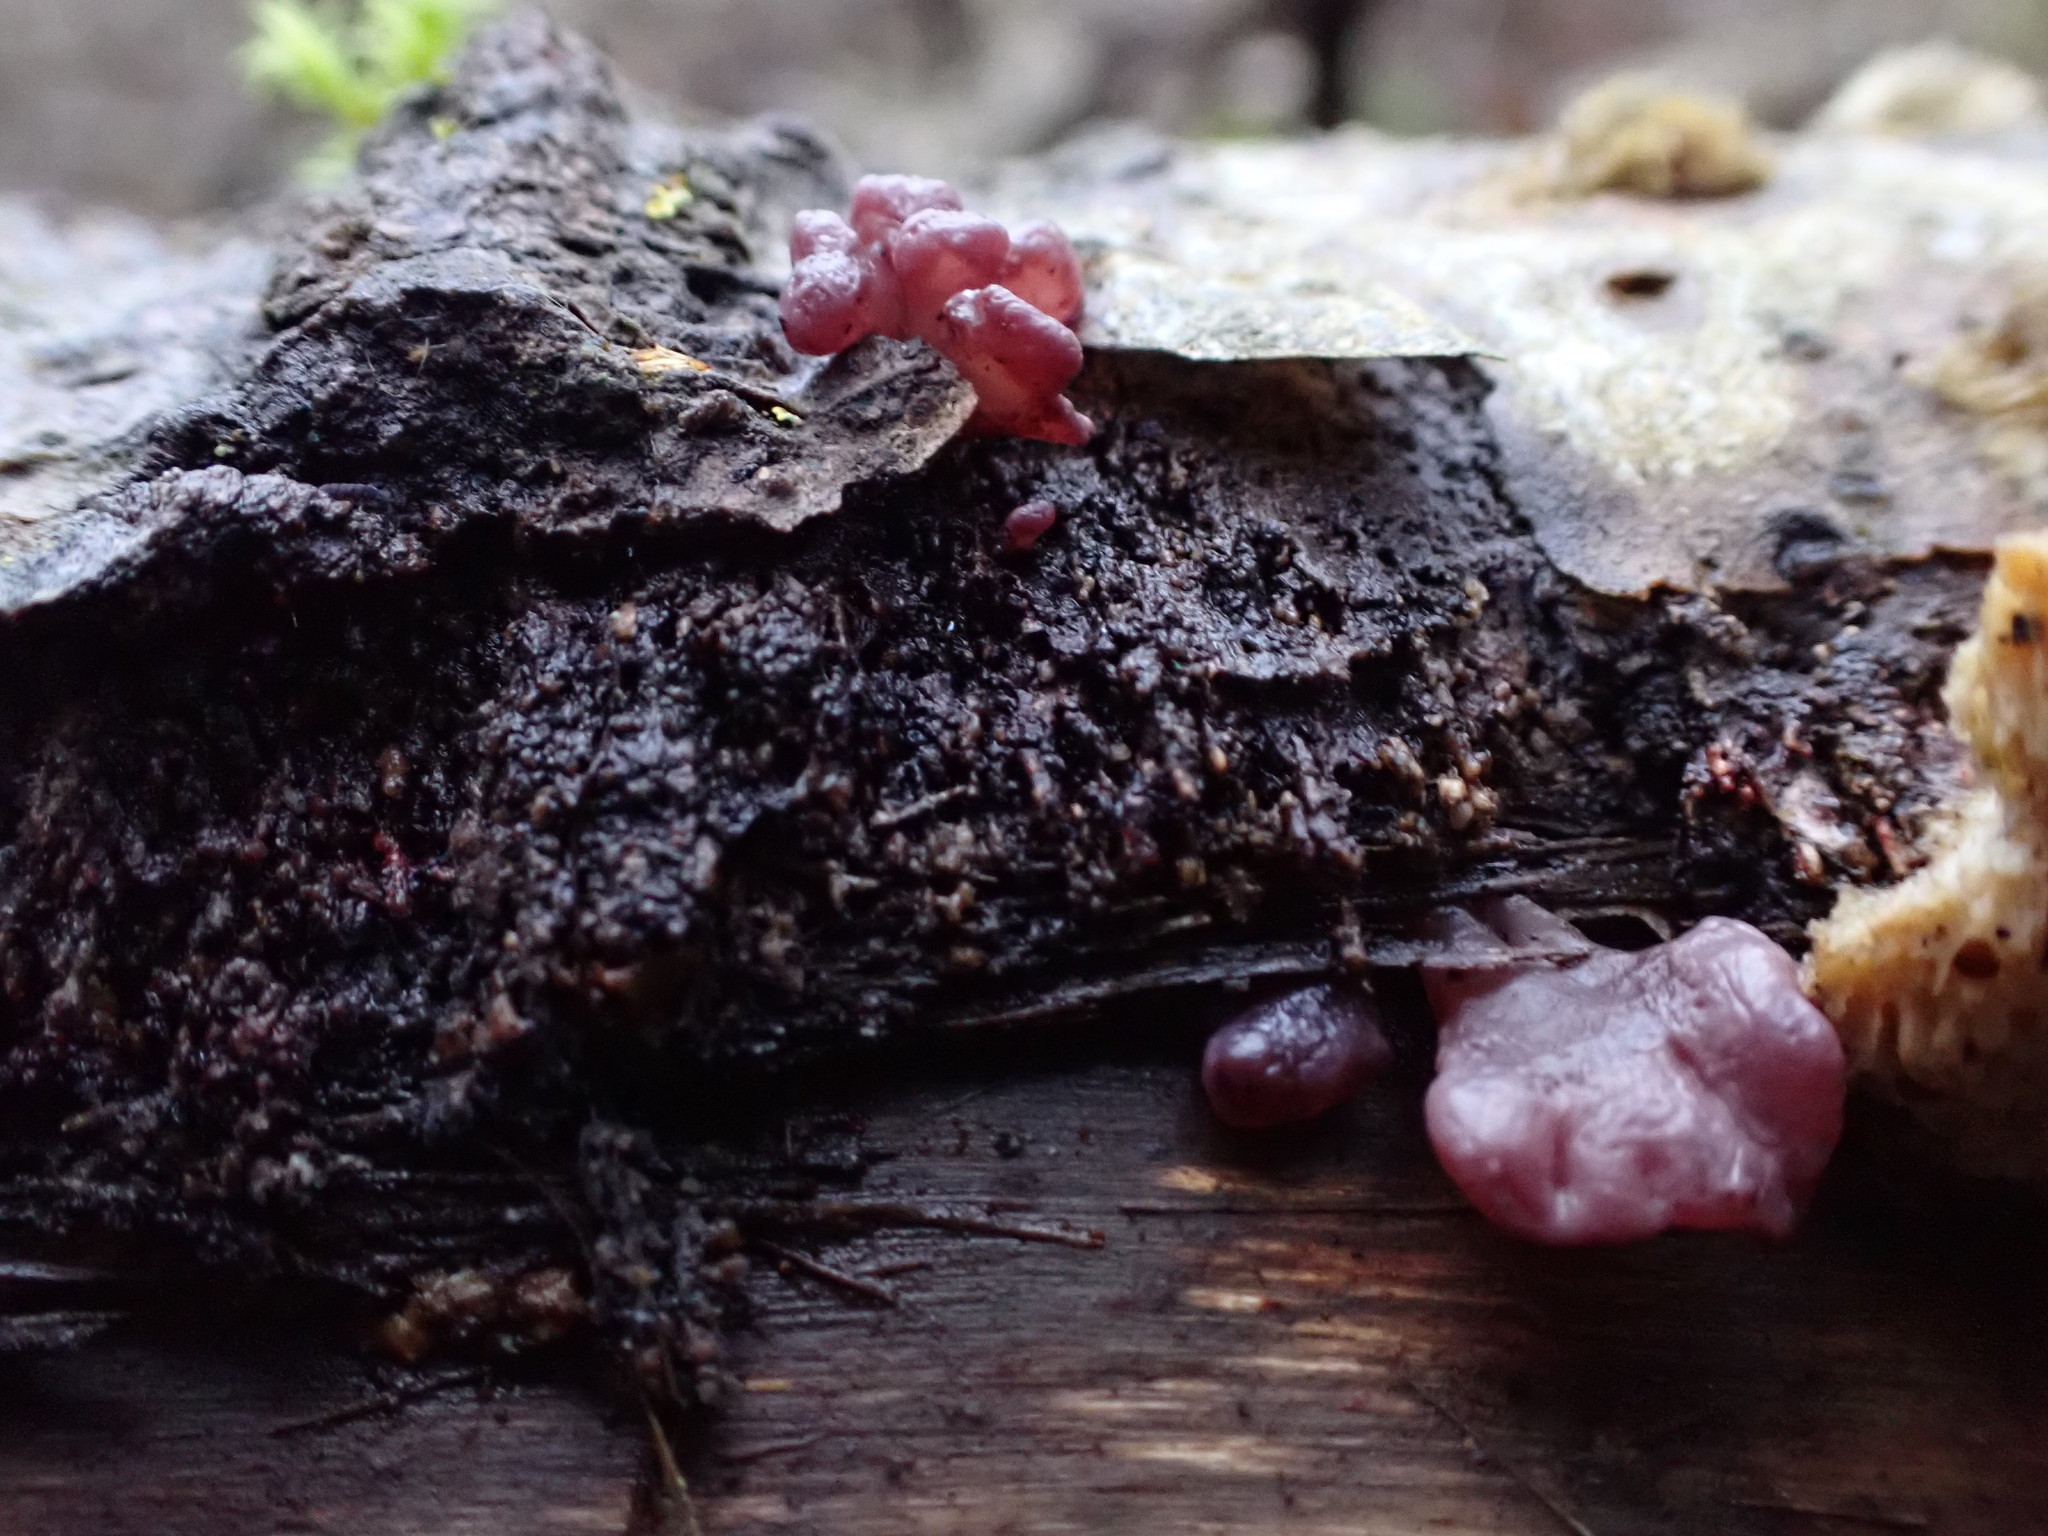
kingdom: Fungi
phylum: Ascomycota
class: Leotiomycetes
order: Helotiales
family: Gelatinodiscaceae
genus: Ascocoryne
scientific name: Ascocoryne sarcoides
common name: Purple jellydisc
